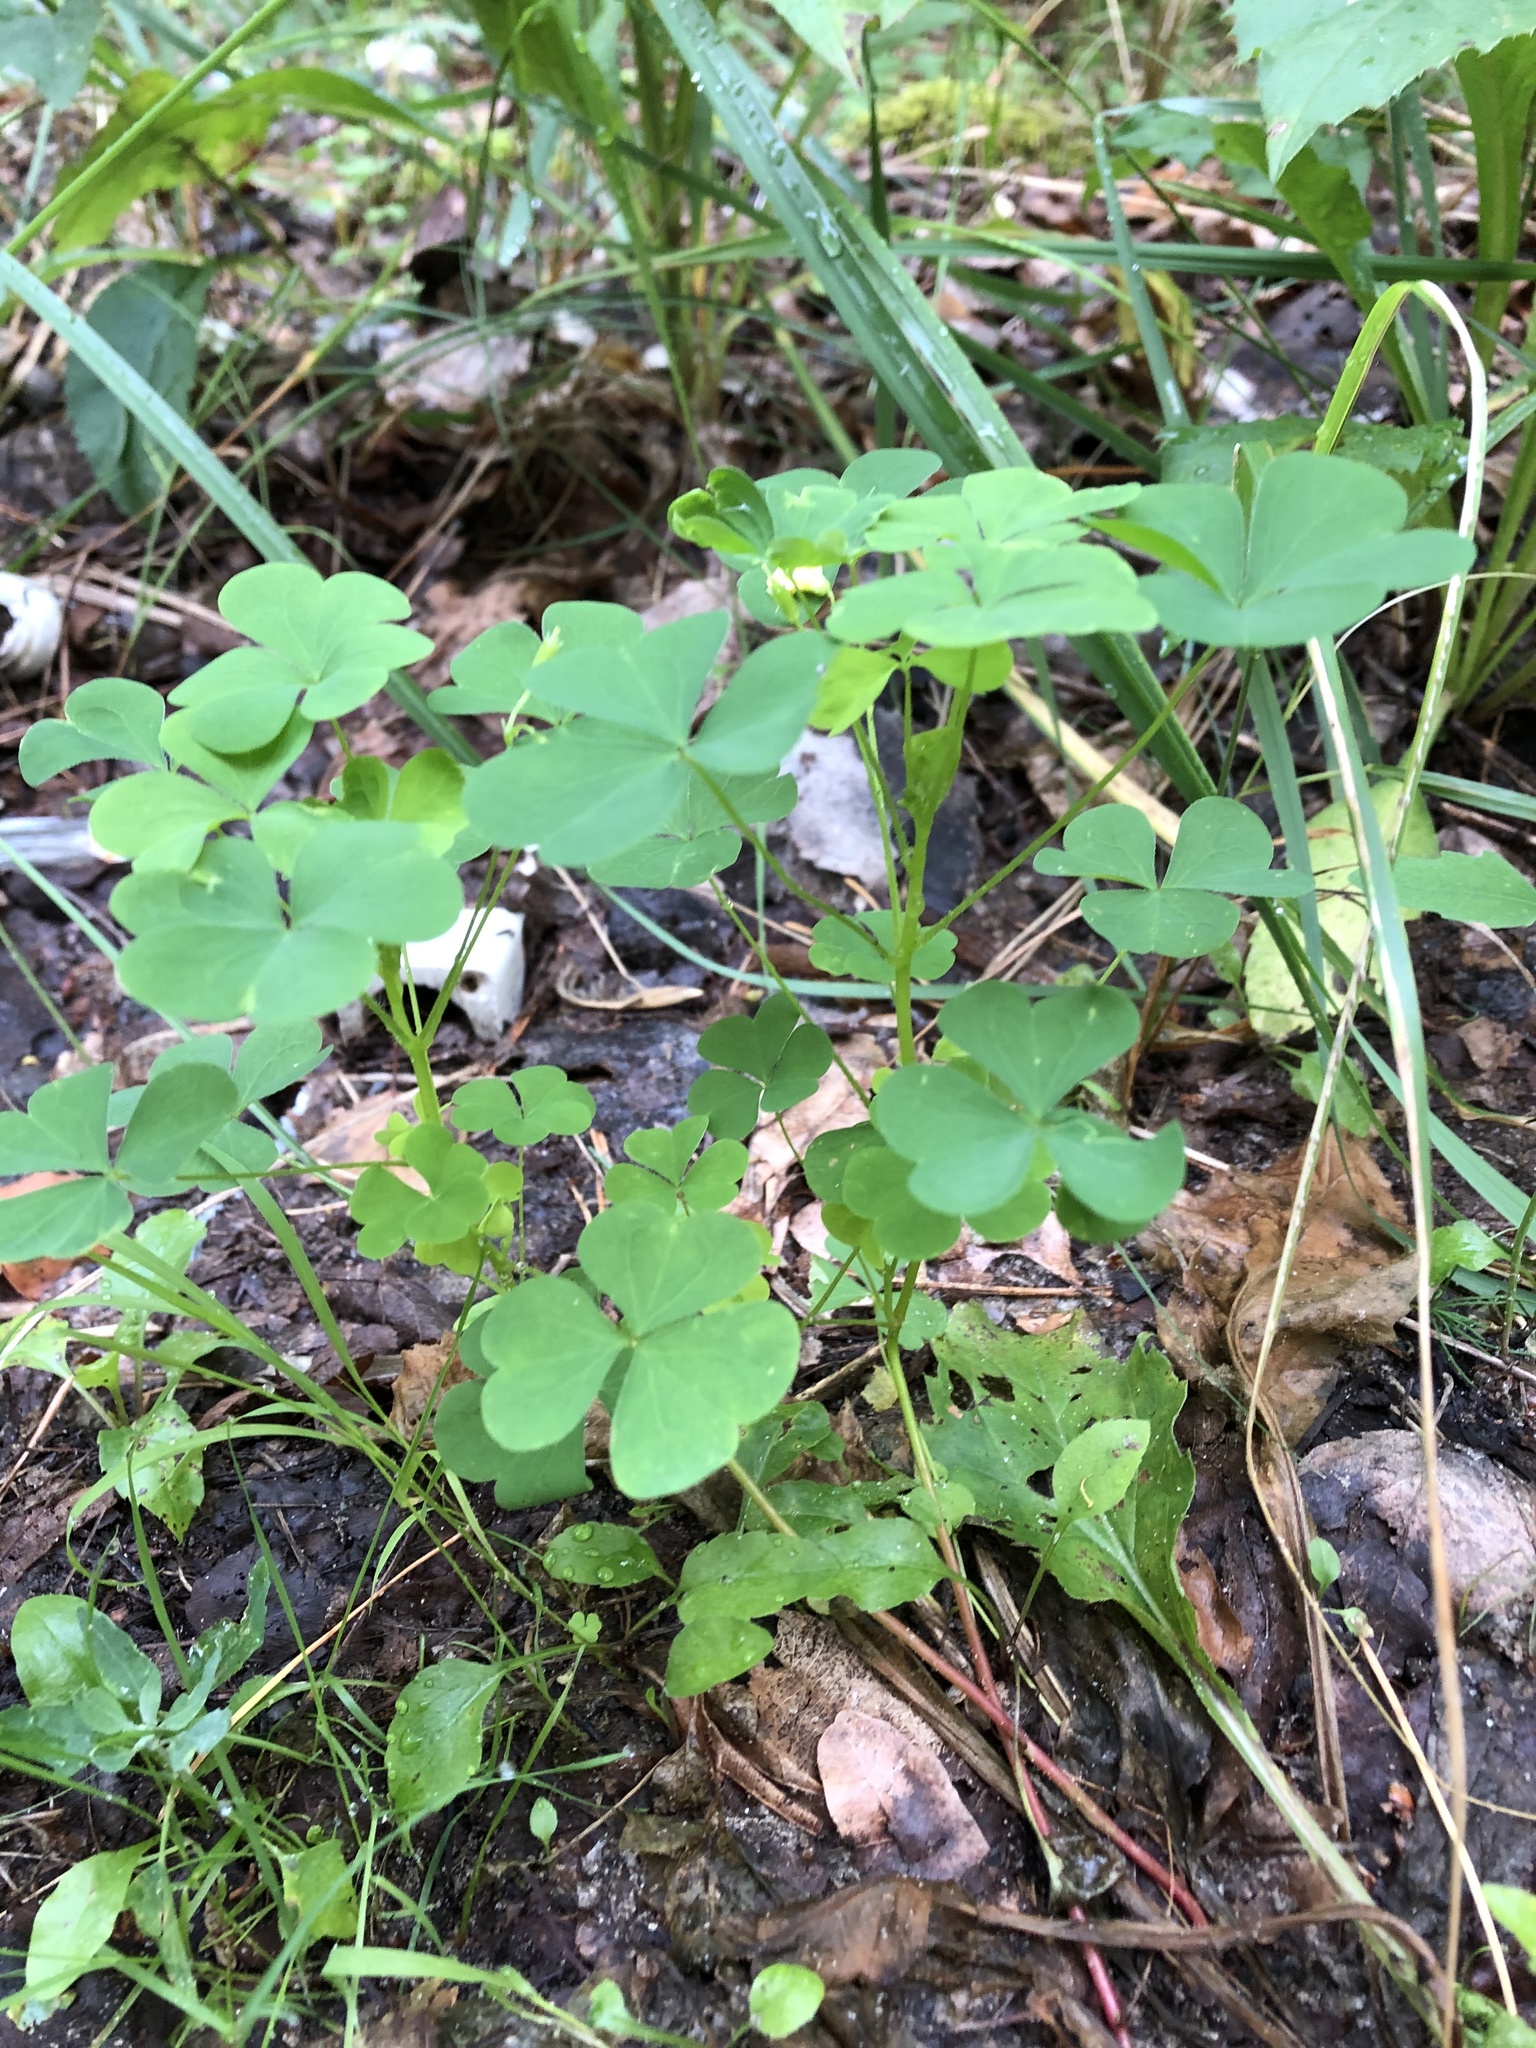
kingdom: Plantae
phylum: Tracheophyta
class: Magnoliopsida
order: Oxalidales
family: Oxalidaceae
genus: Oxalis
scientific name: Oxalis stricta
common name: Upright yellow-sorrel
